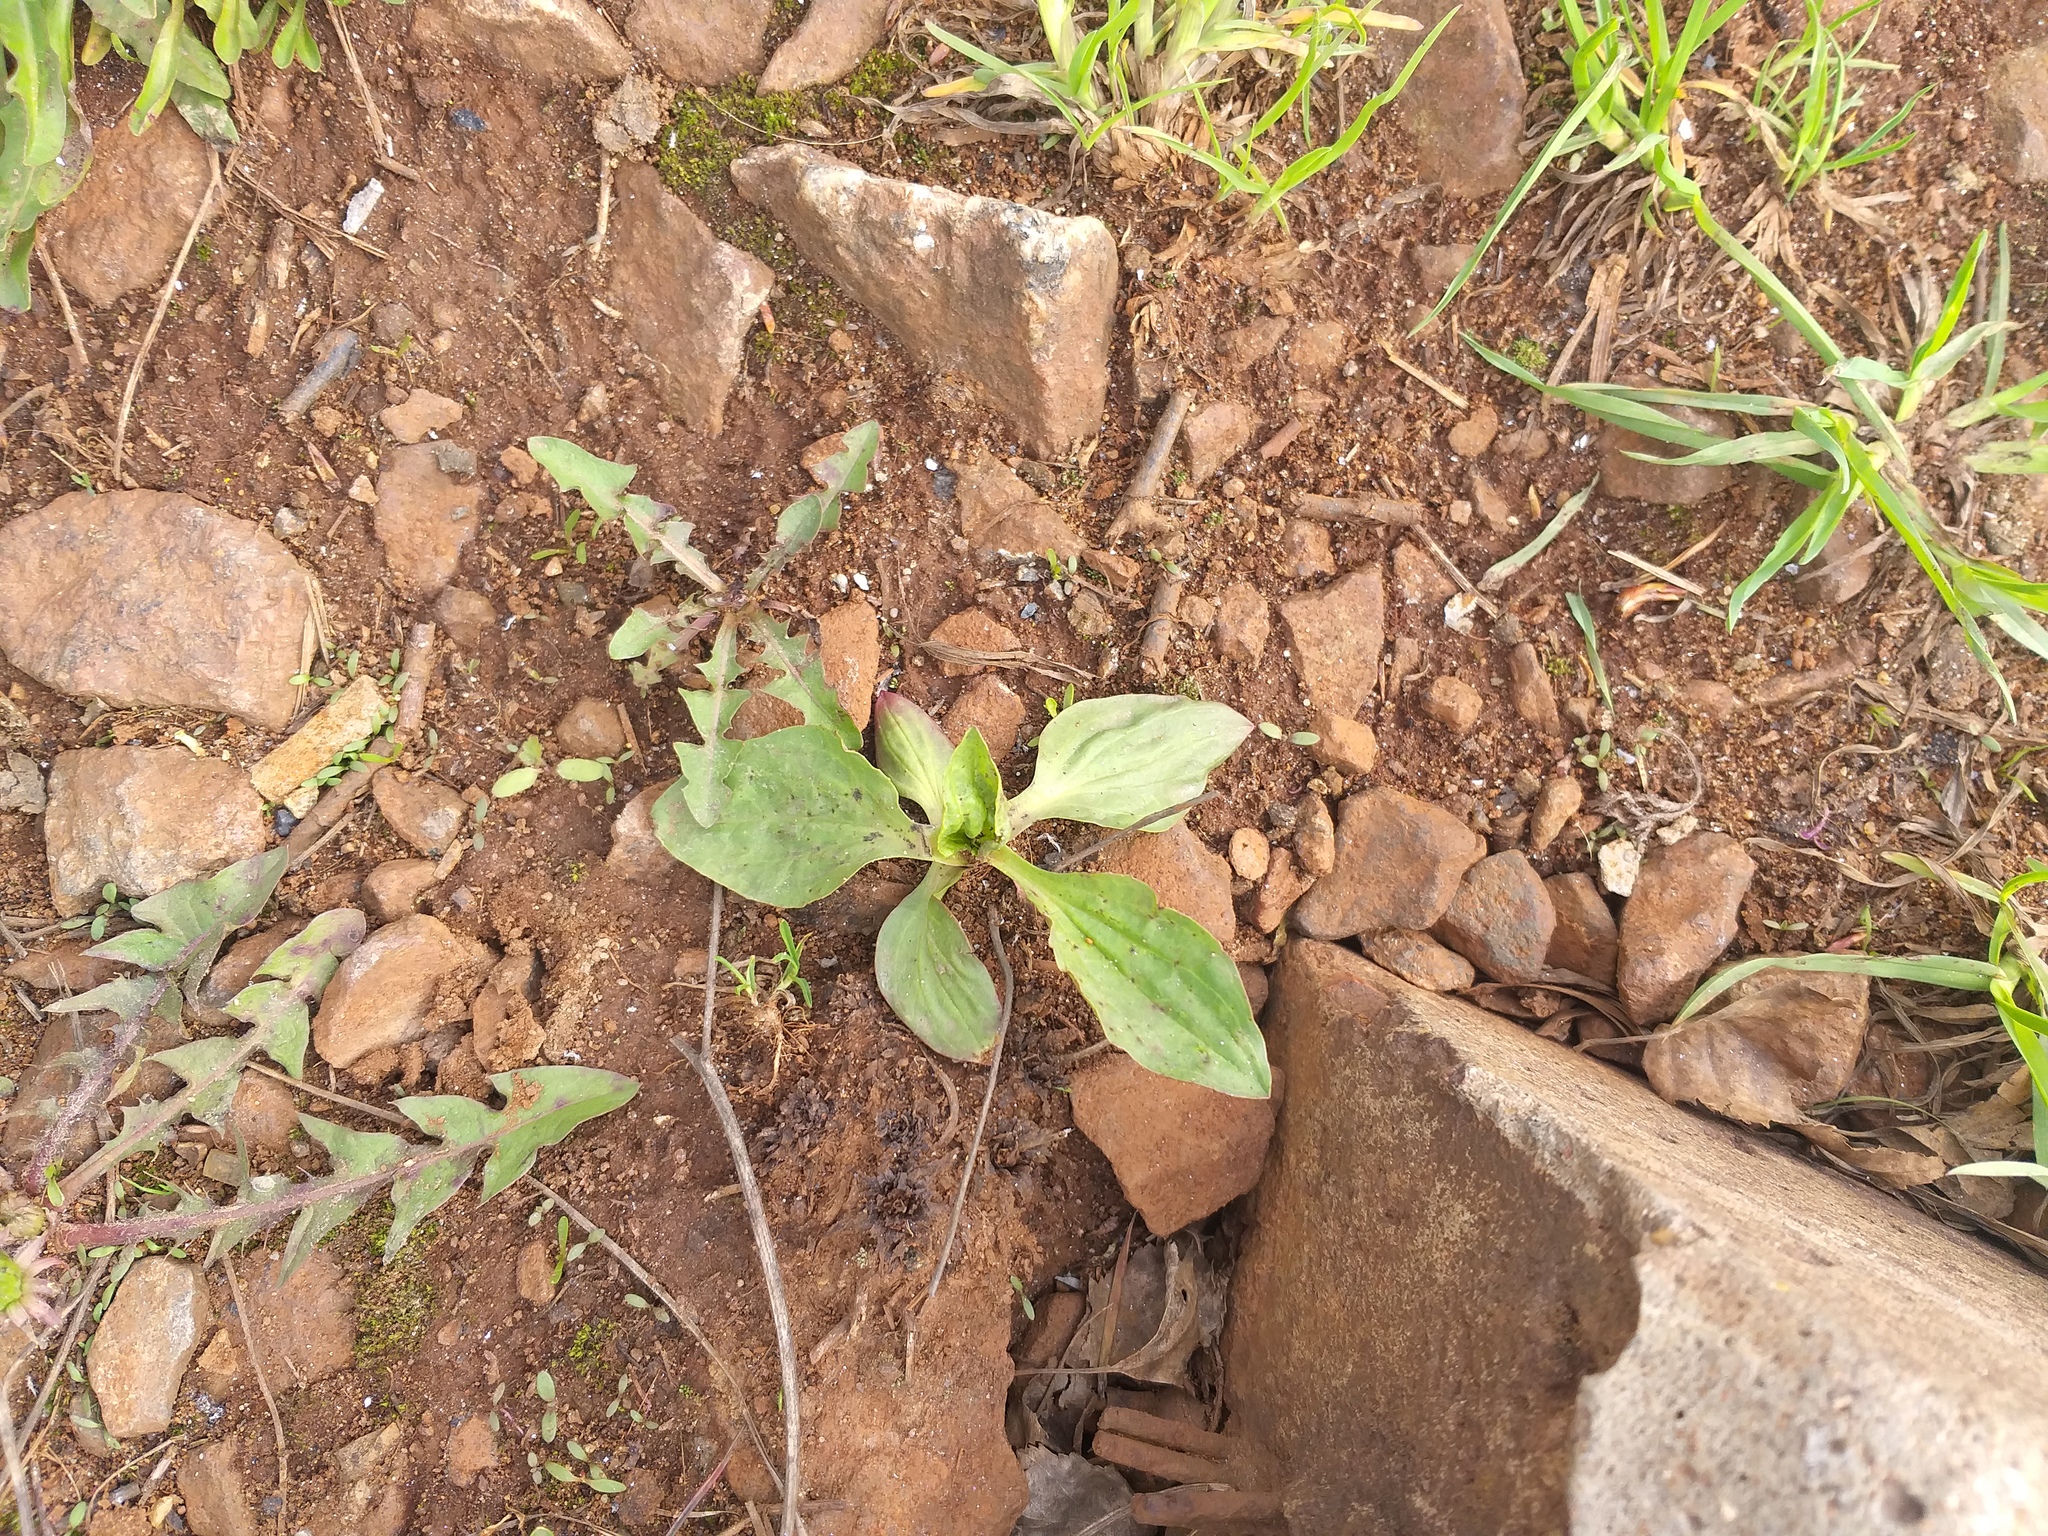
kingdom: Plantae
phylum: Tracheophyta
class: Magnoliopsida
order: Lamiales
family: Plantaginaceae
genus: Plantago
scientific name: Plantago major
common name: Common plantain
